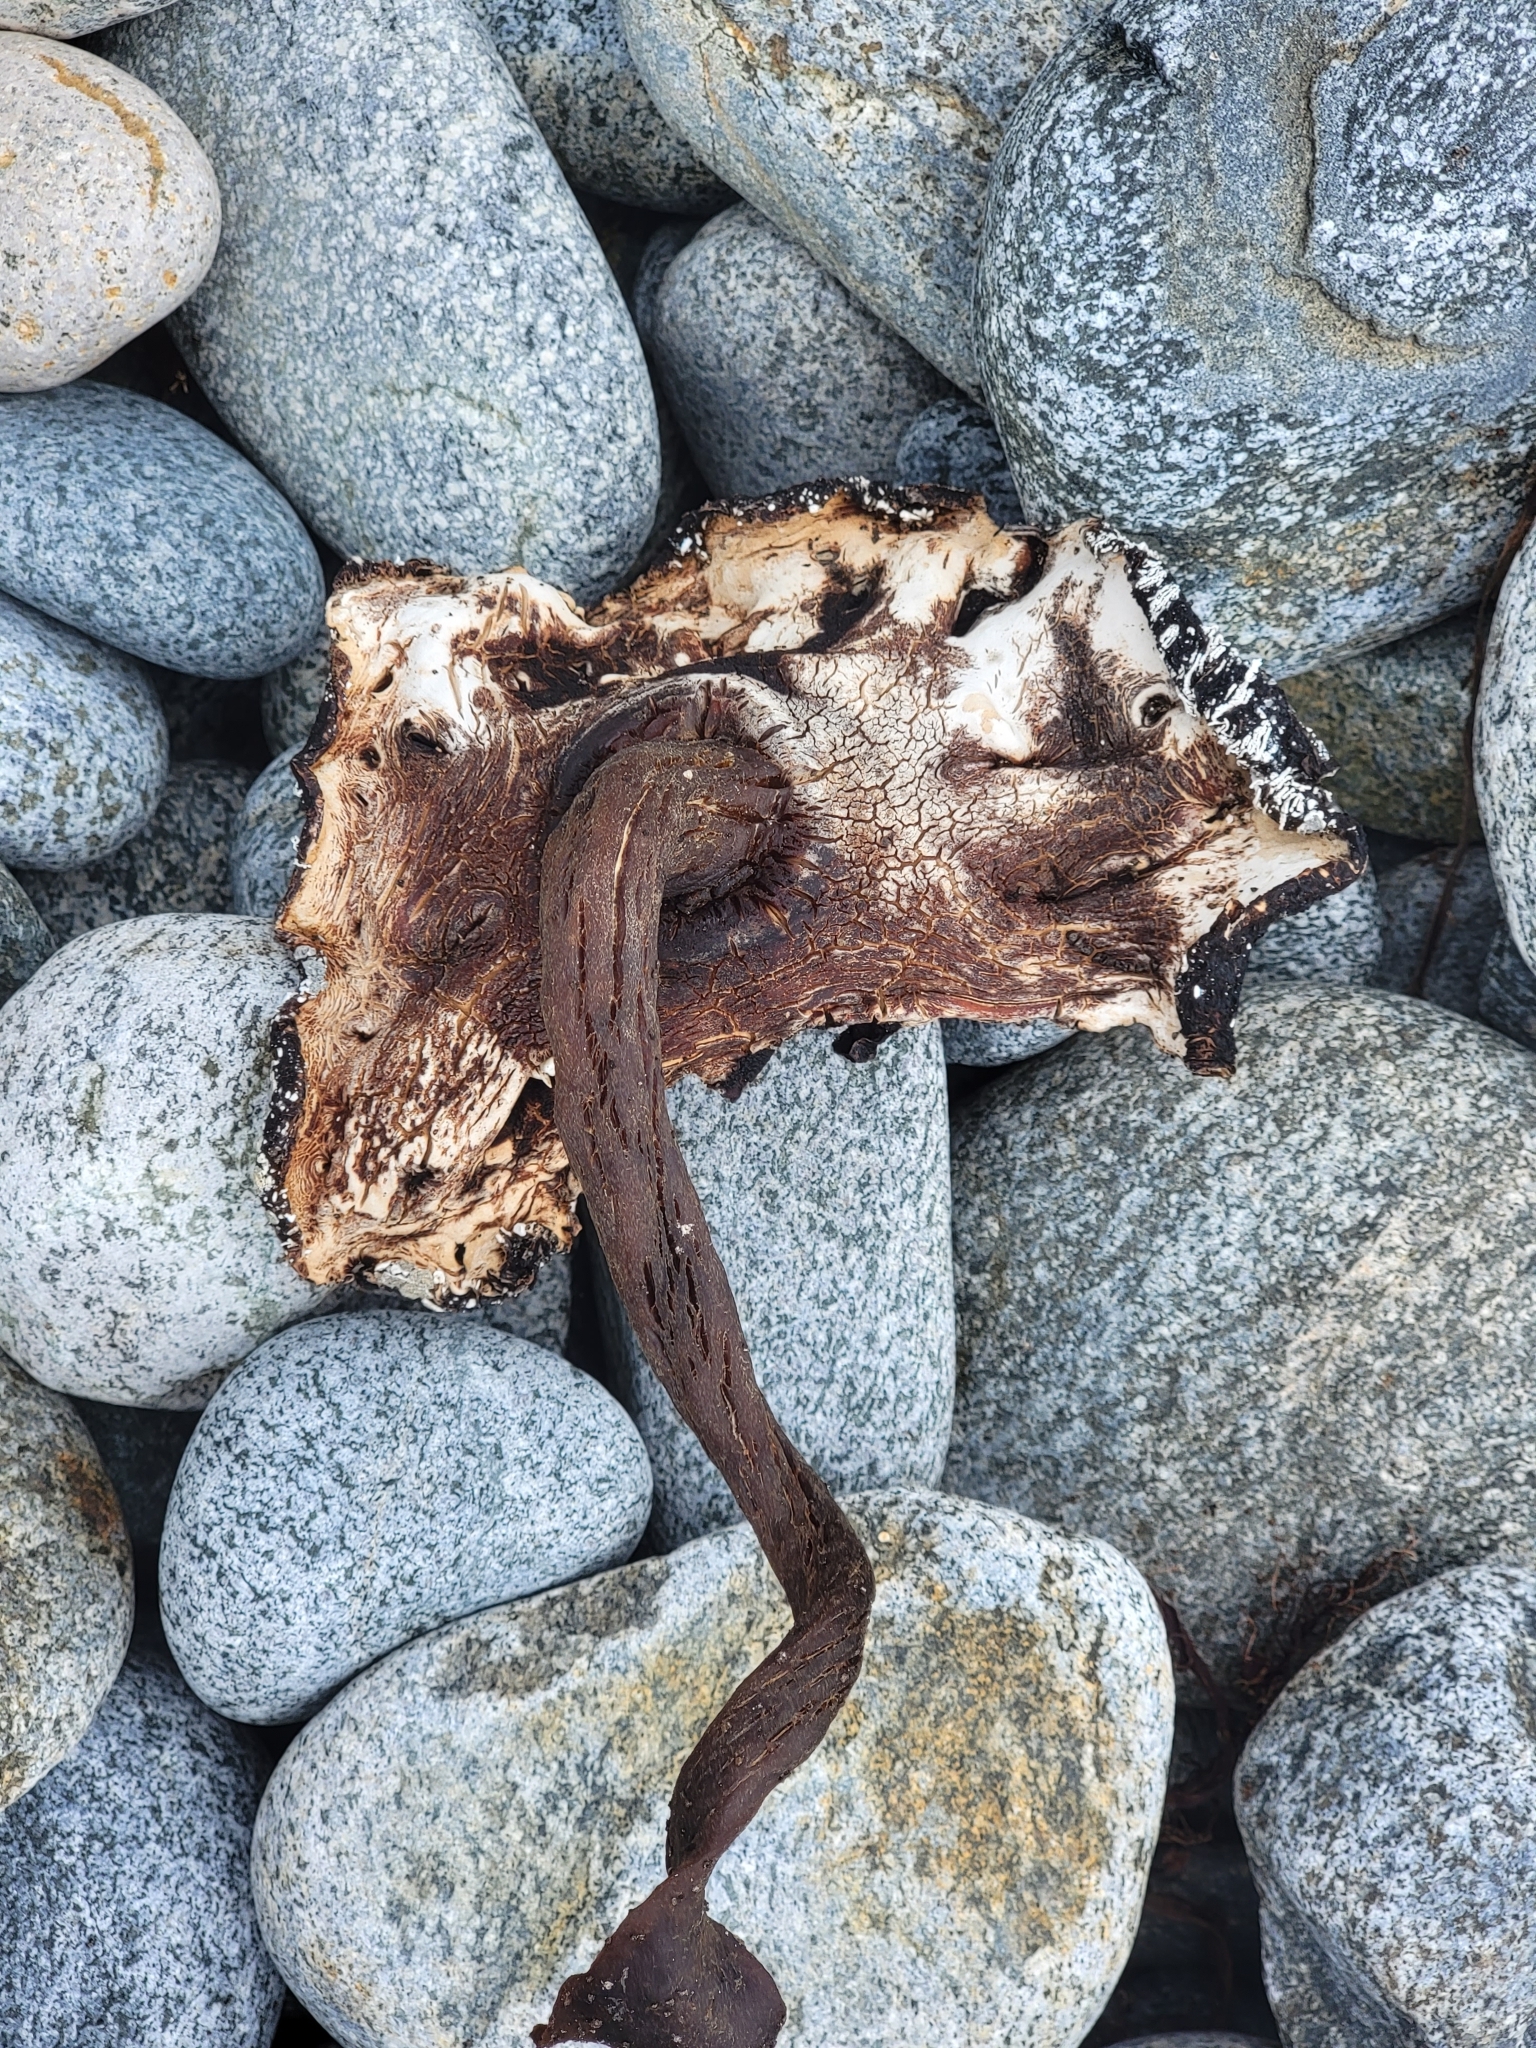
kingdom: Chromista
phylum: Ochrophyta
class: Phaeophyceae
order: Fucales
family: Durvillaeaceae
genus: Durvillaea
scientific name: Durvillaea antarctica
